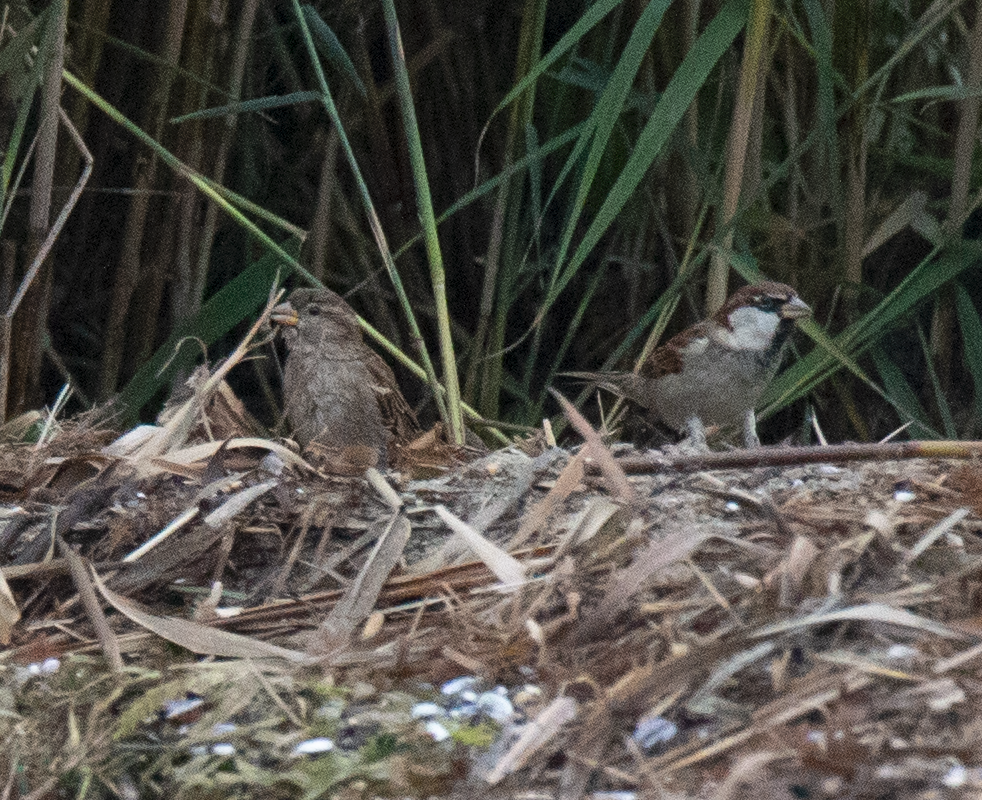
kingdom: Animalia
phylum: Chordata
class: Aves
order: Passeriformes
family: Passeridae
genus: Passer
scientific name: Passer italiae
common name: Italian sparrow
